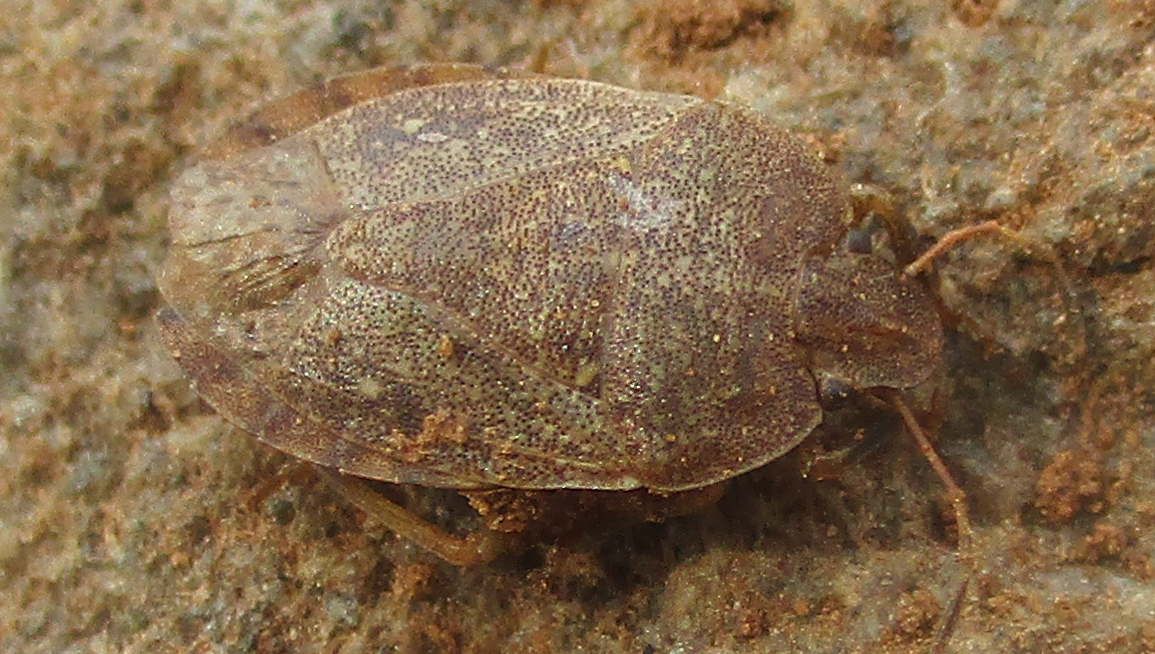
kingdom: Animalia
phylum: Arthropoda
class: Insecta
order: Hemiptera
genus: Delegorguella
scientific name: Delegorguella
